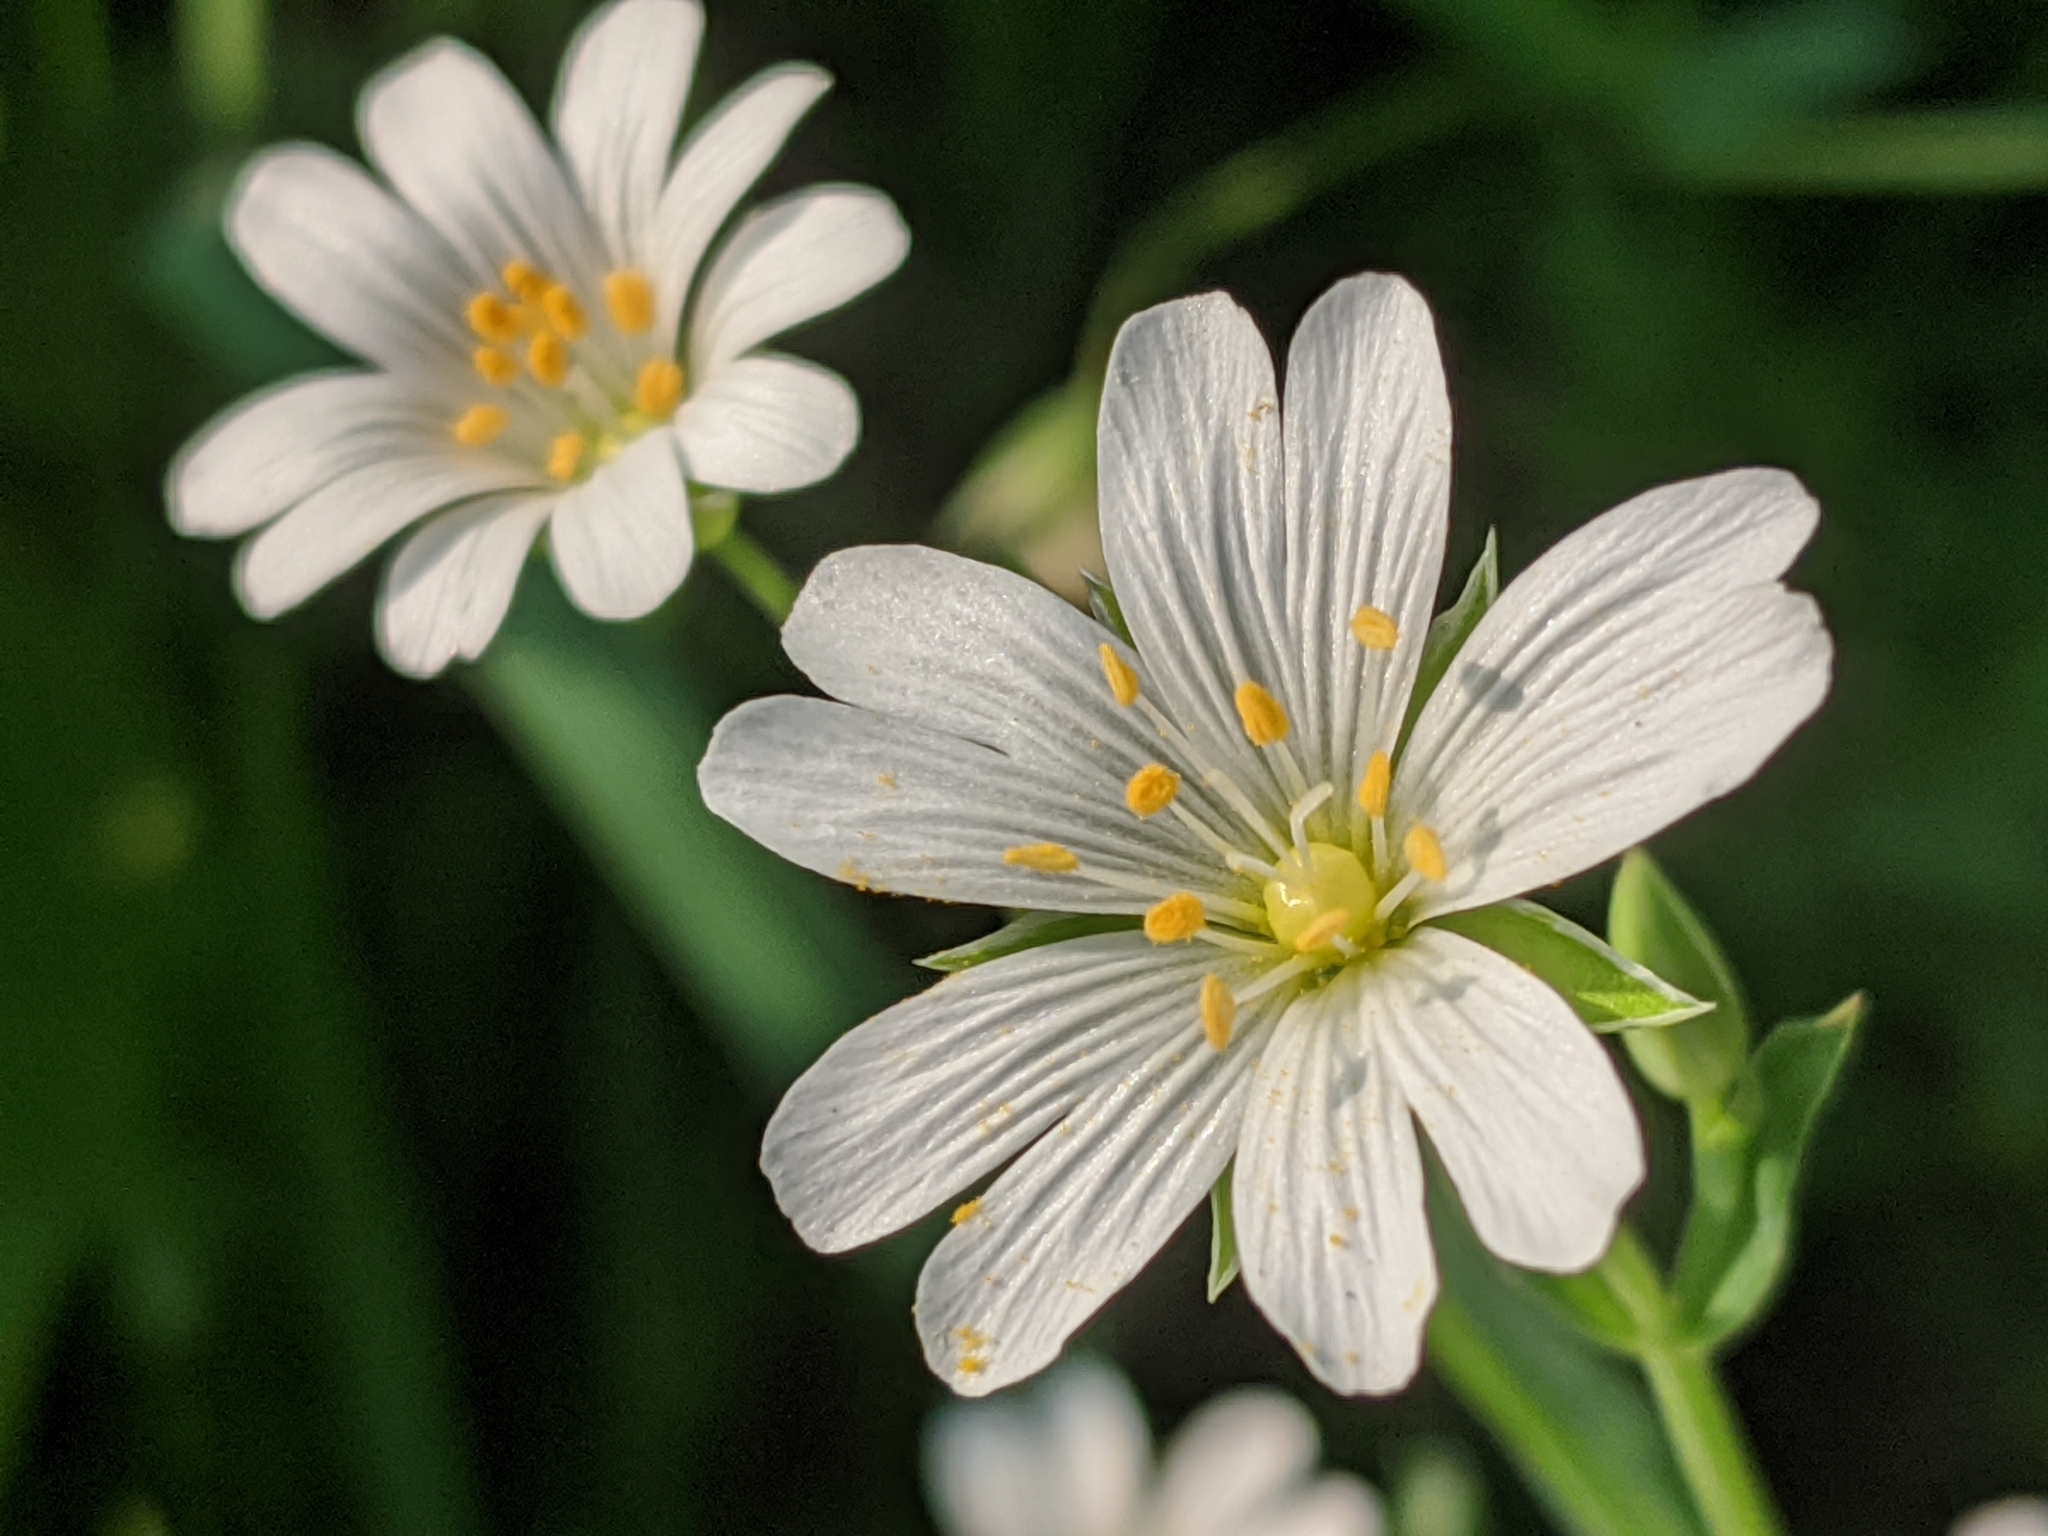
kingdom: Plantae
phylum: Tracheophyta
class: Magnoliopsida
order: Caryophyllales
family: Caryophyllaceae
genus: Rabelera
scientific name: Rabelera holostea
